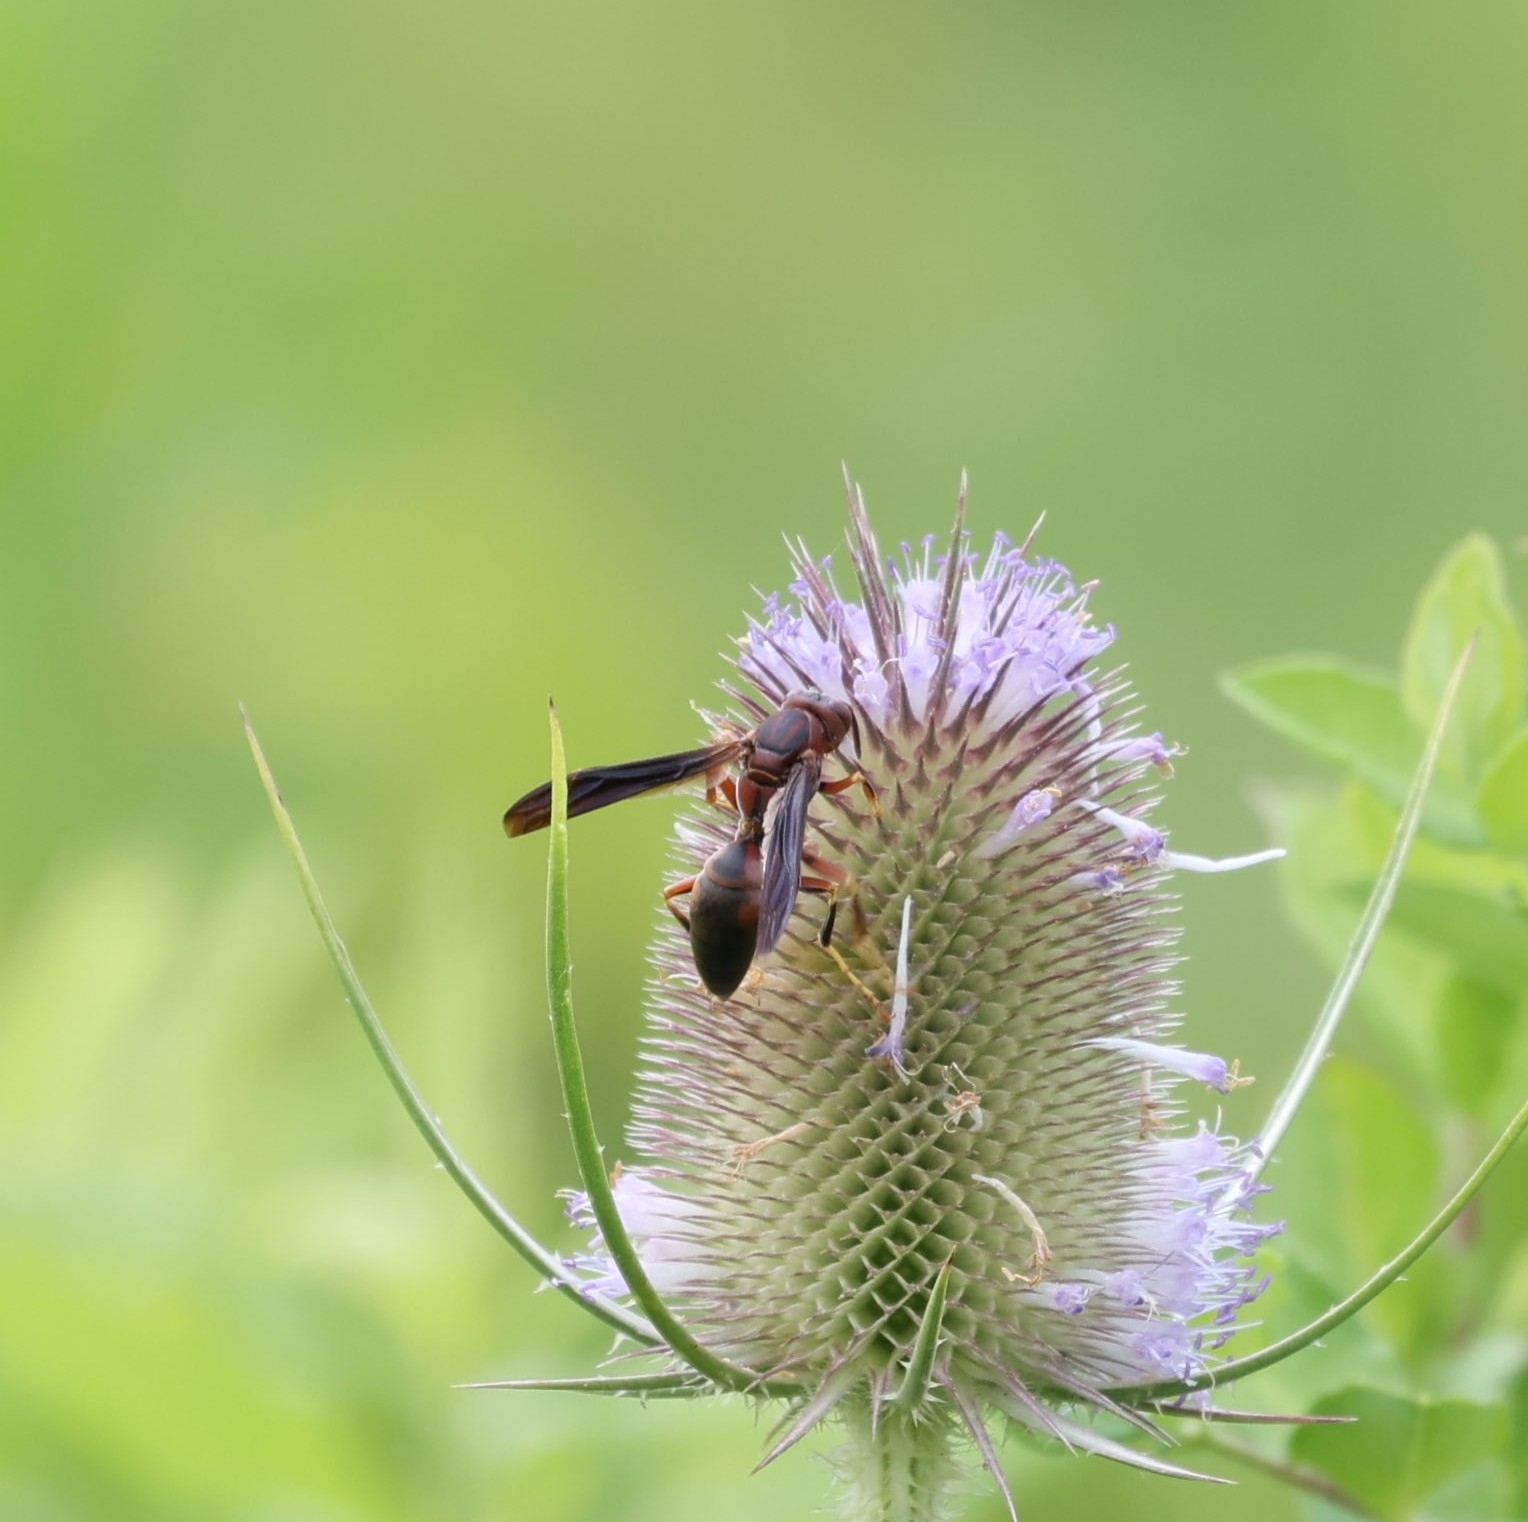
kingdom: Animalia
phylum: Arthropoda
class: Insecta
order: Hymenoptera
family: Eumenidae
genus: Polistes
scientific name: Polistes metricus
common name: Metric paper wasp
